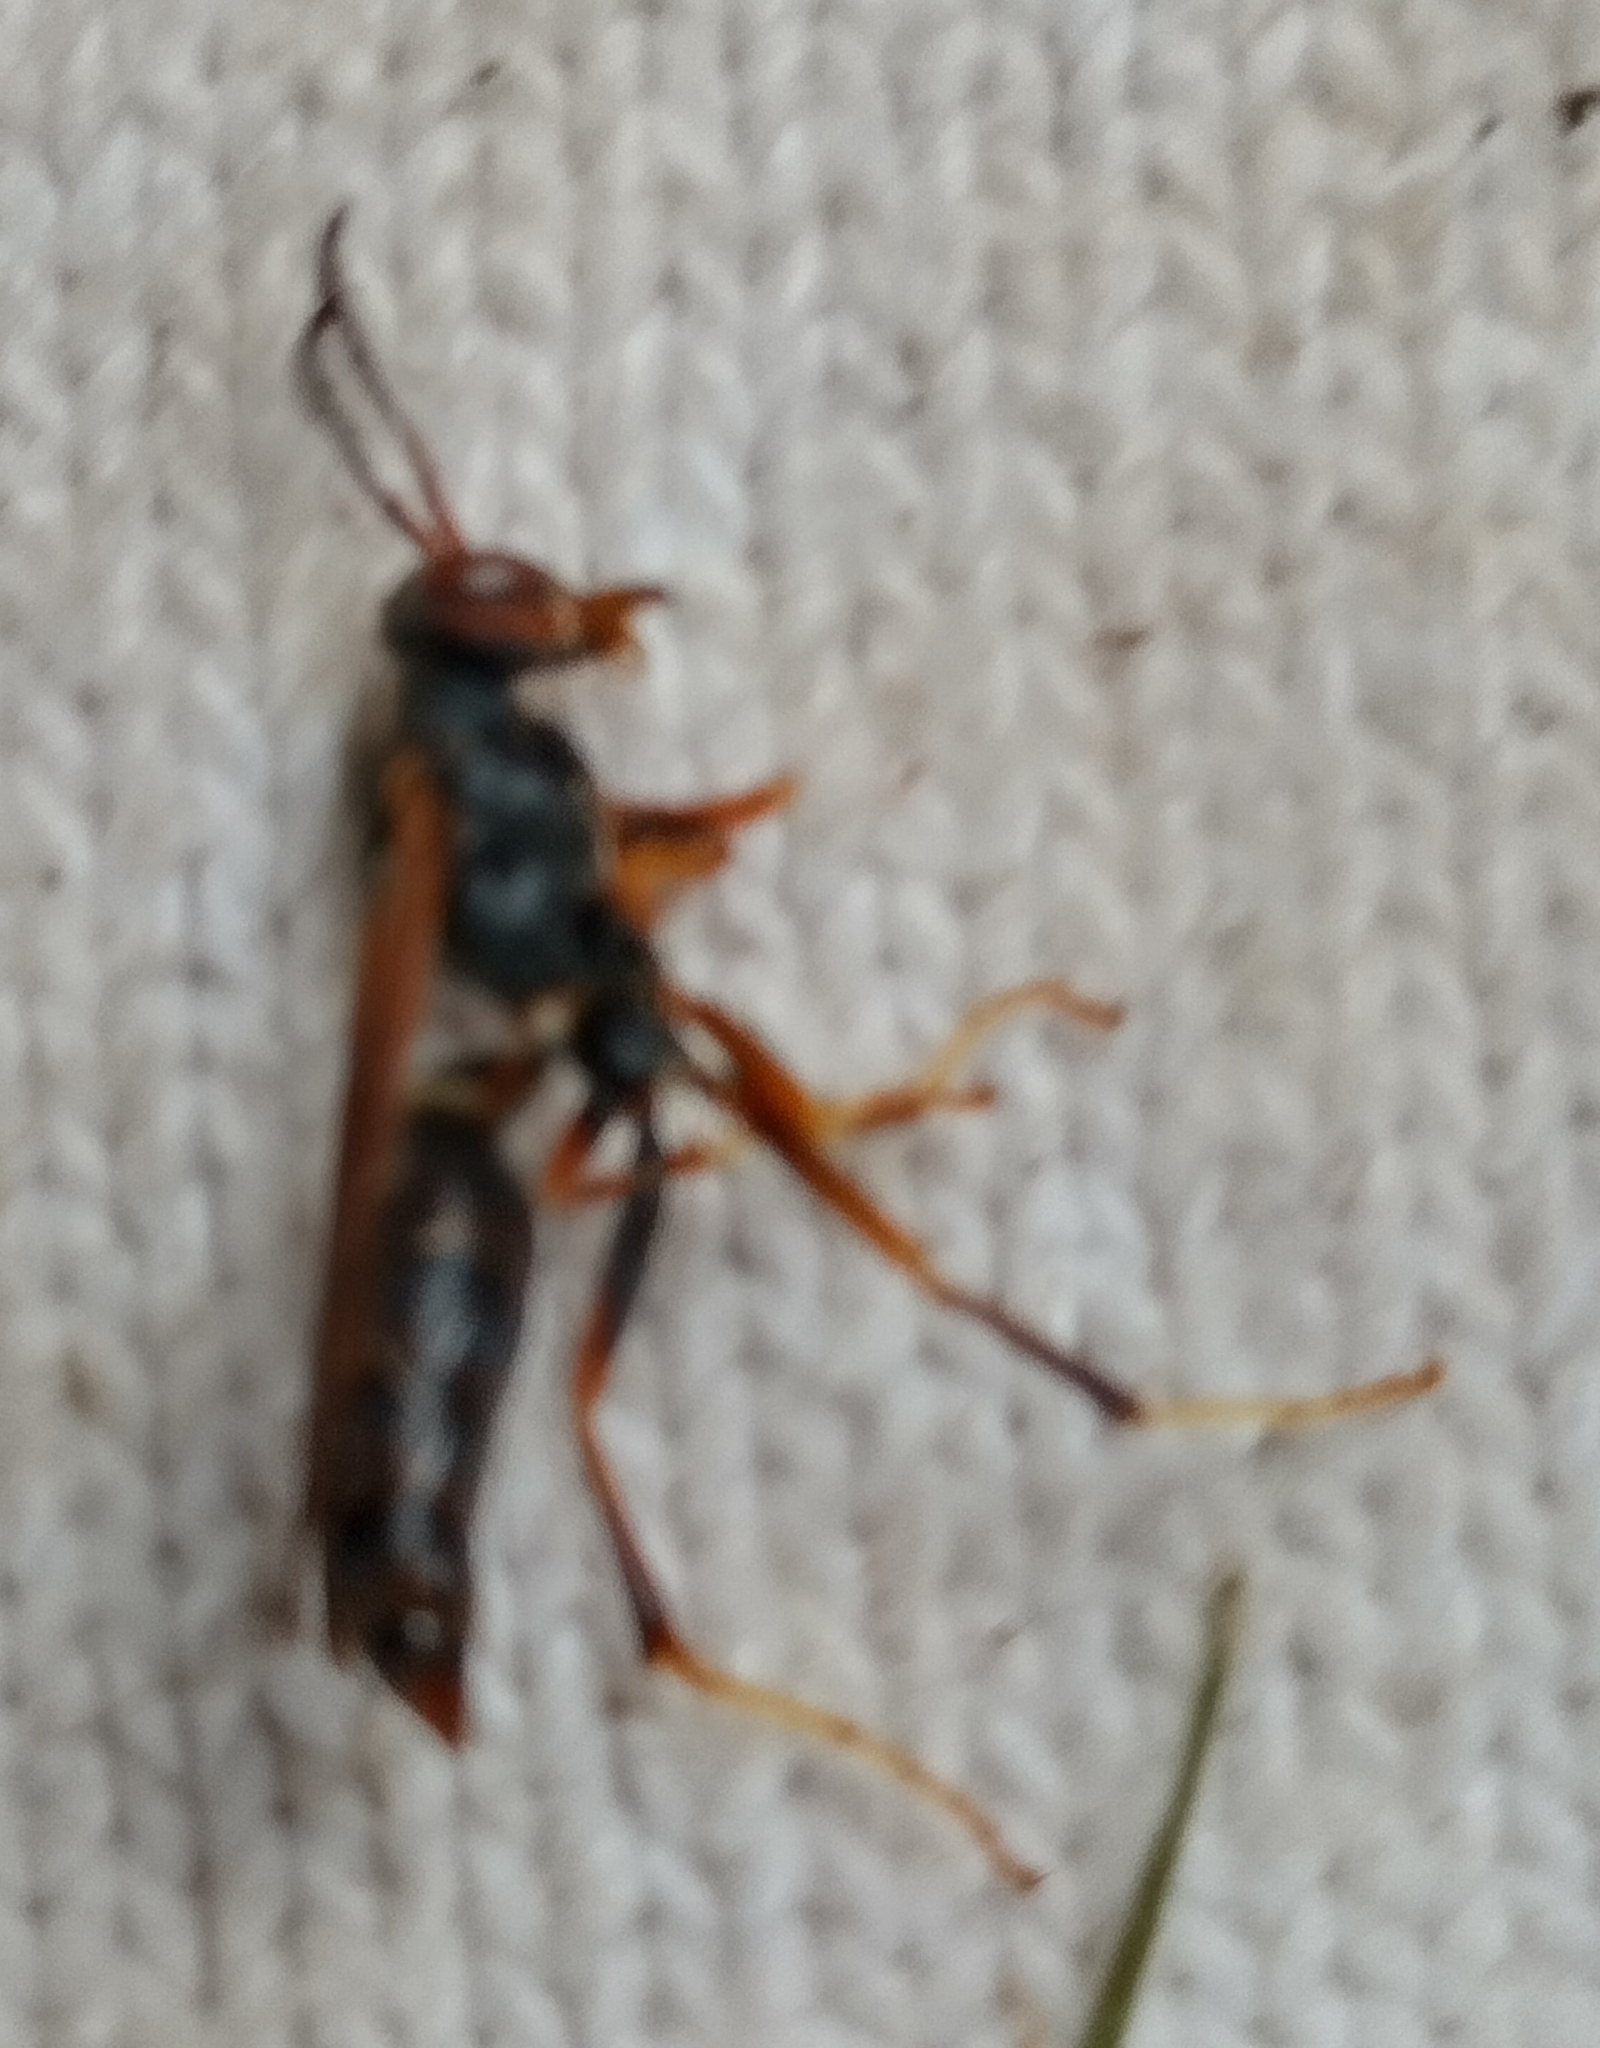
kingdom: Animalia
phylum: Arthropoda
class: Insecta
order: Hymenoptera
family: Vespidae
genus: Fuscopolistes
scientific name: Fuscopolistes
